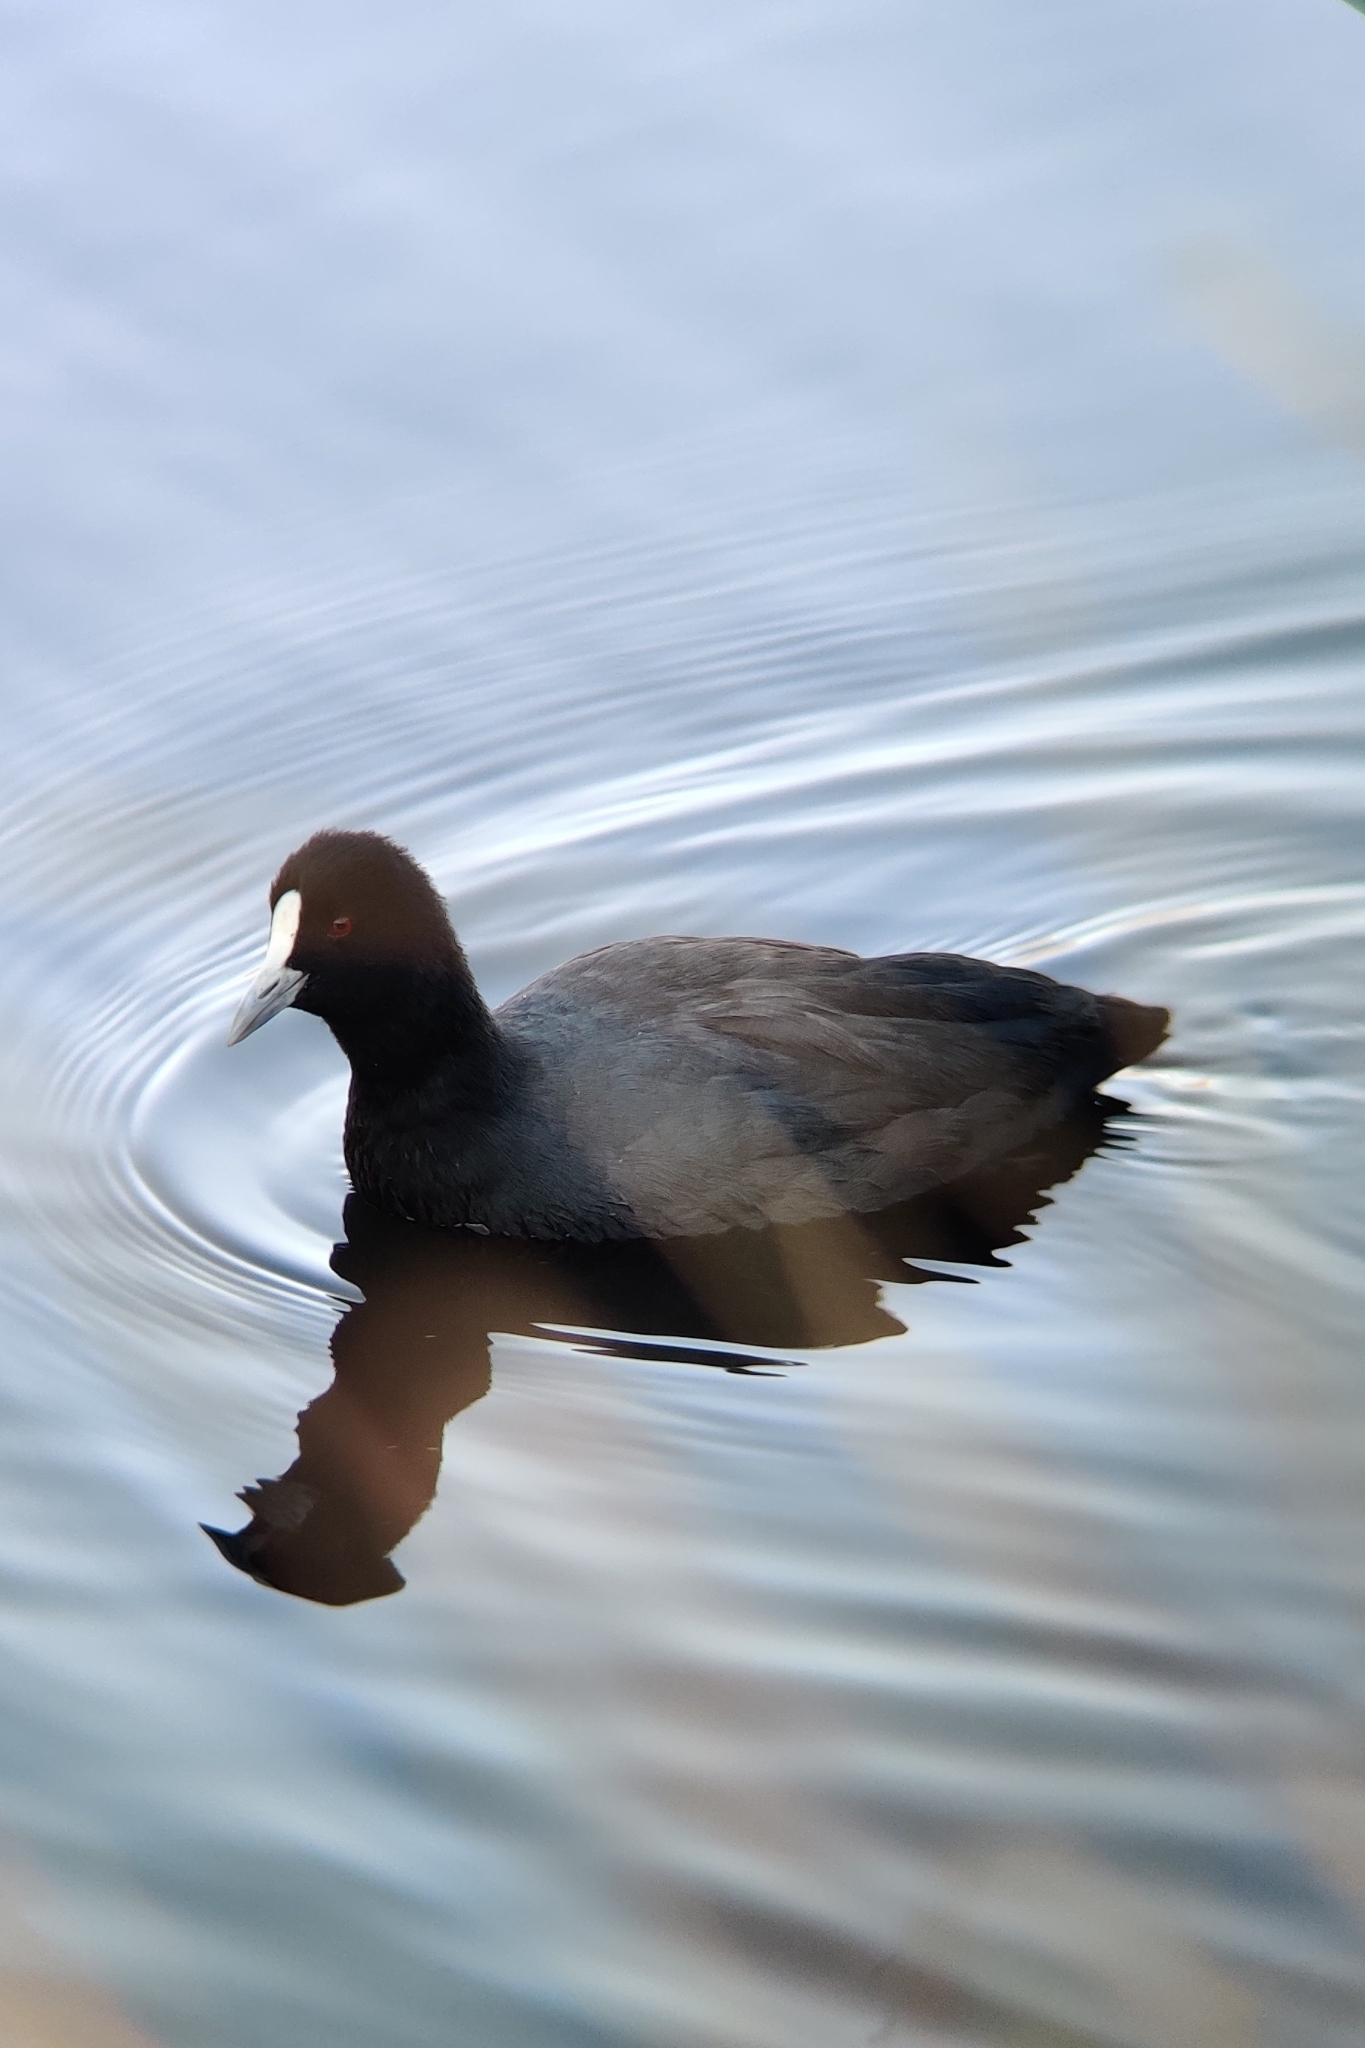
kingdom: Animalia
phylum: Chordata
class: Aves
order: Gruiformes
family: Rallidae
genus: Fulica
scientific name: Fulica atra
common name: Eurasian coot
